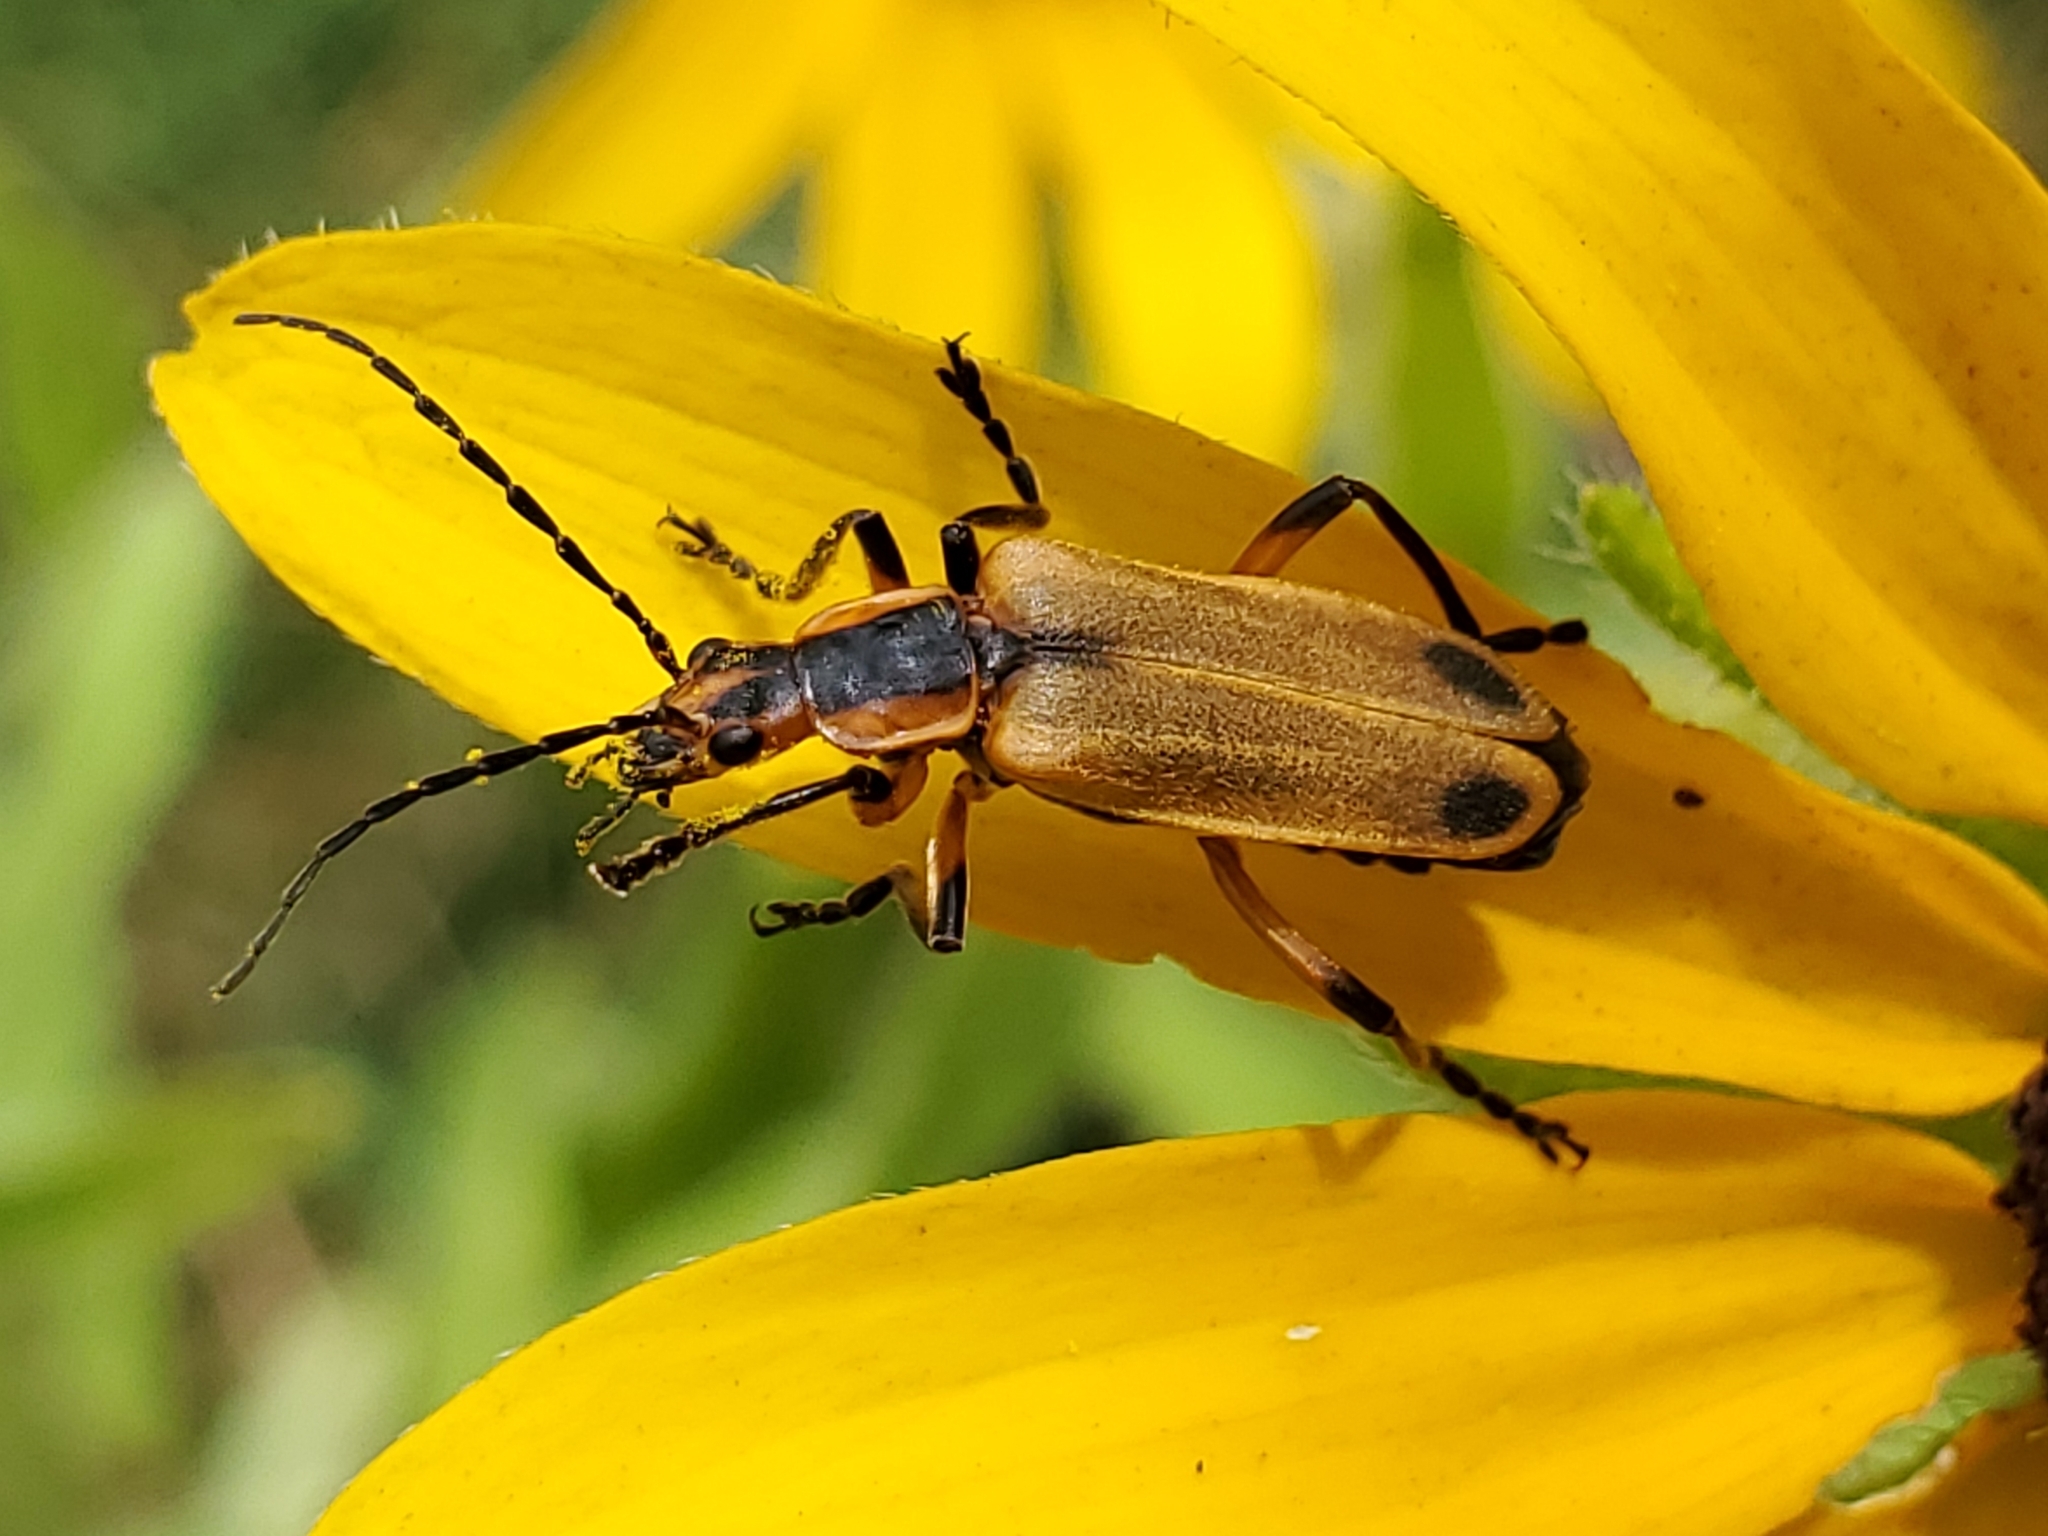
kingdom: Animalia
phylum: Arthropoda
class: Insecta
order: Coleoptera
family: Cantharidae
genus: Chauliognathus
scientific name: Chauliognathus marginatus
